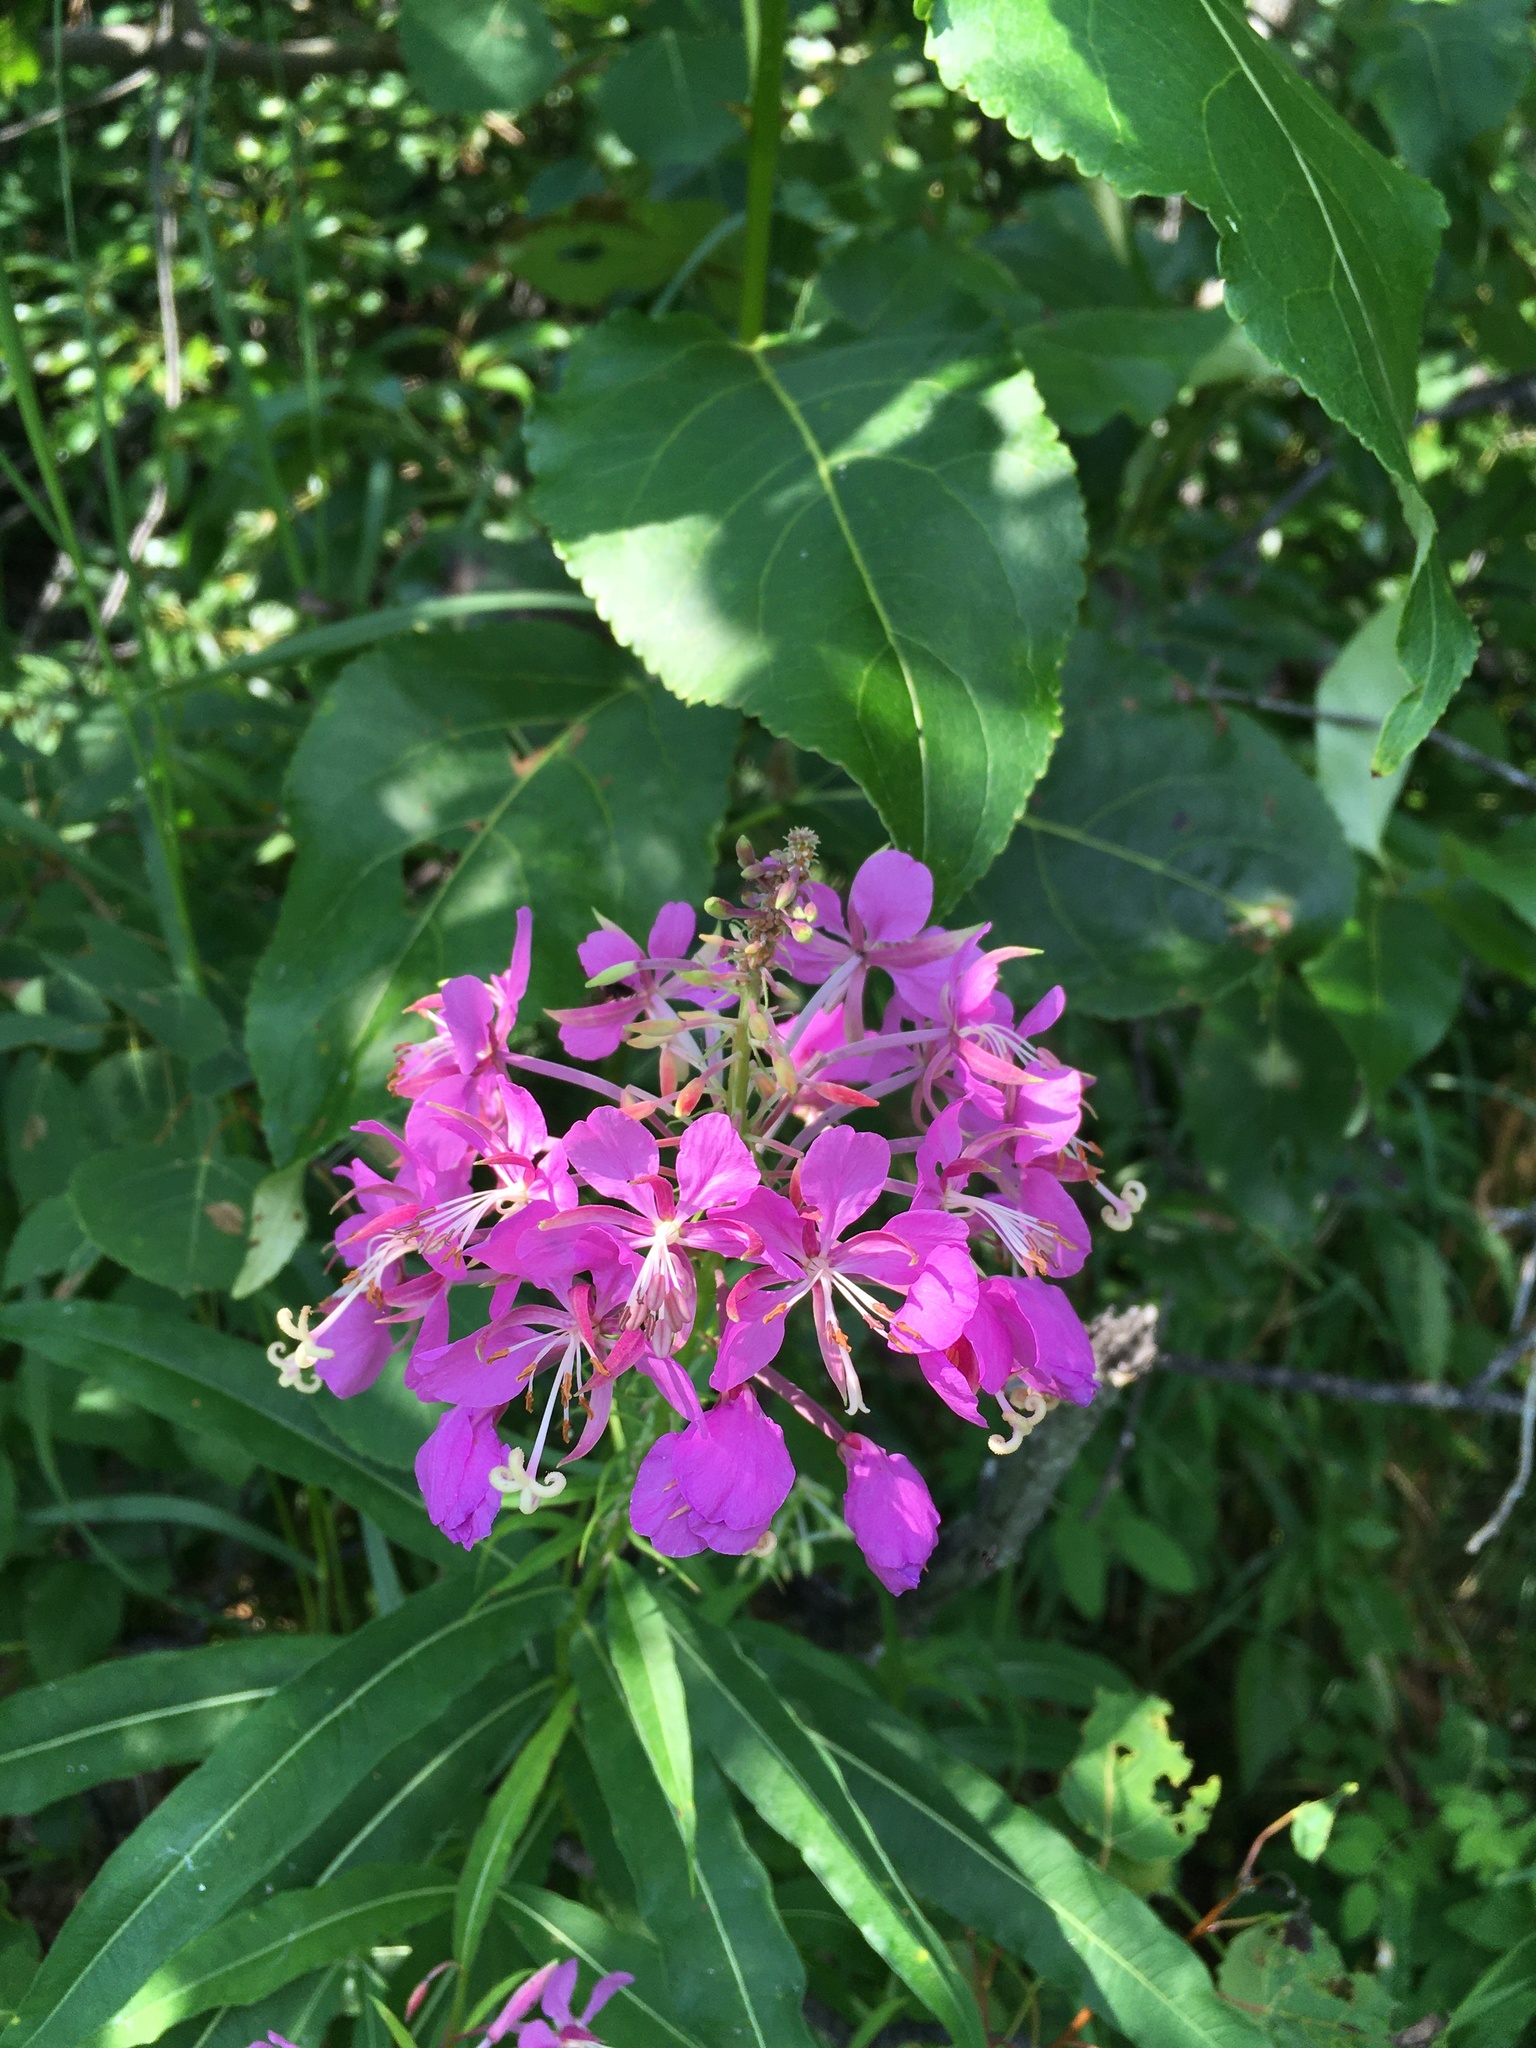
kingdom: Plantae
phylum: Tracheophyta
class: Magnoliopsida
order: Myrtales
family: Onagraceae
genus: Chamaenerion
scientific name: Chamaenerion angustifolium
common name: Fireweed
